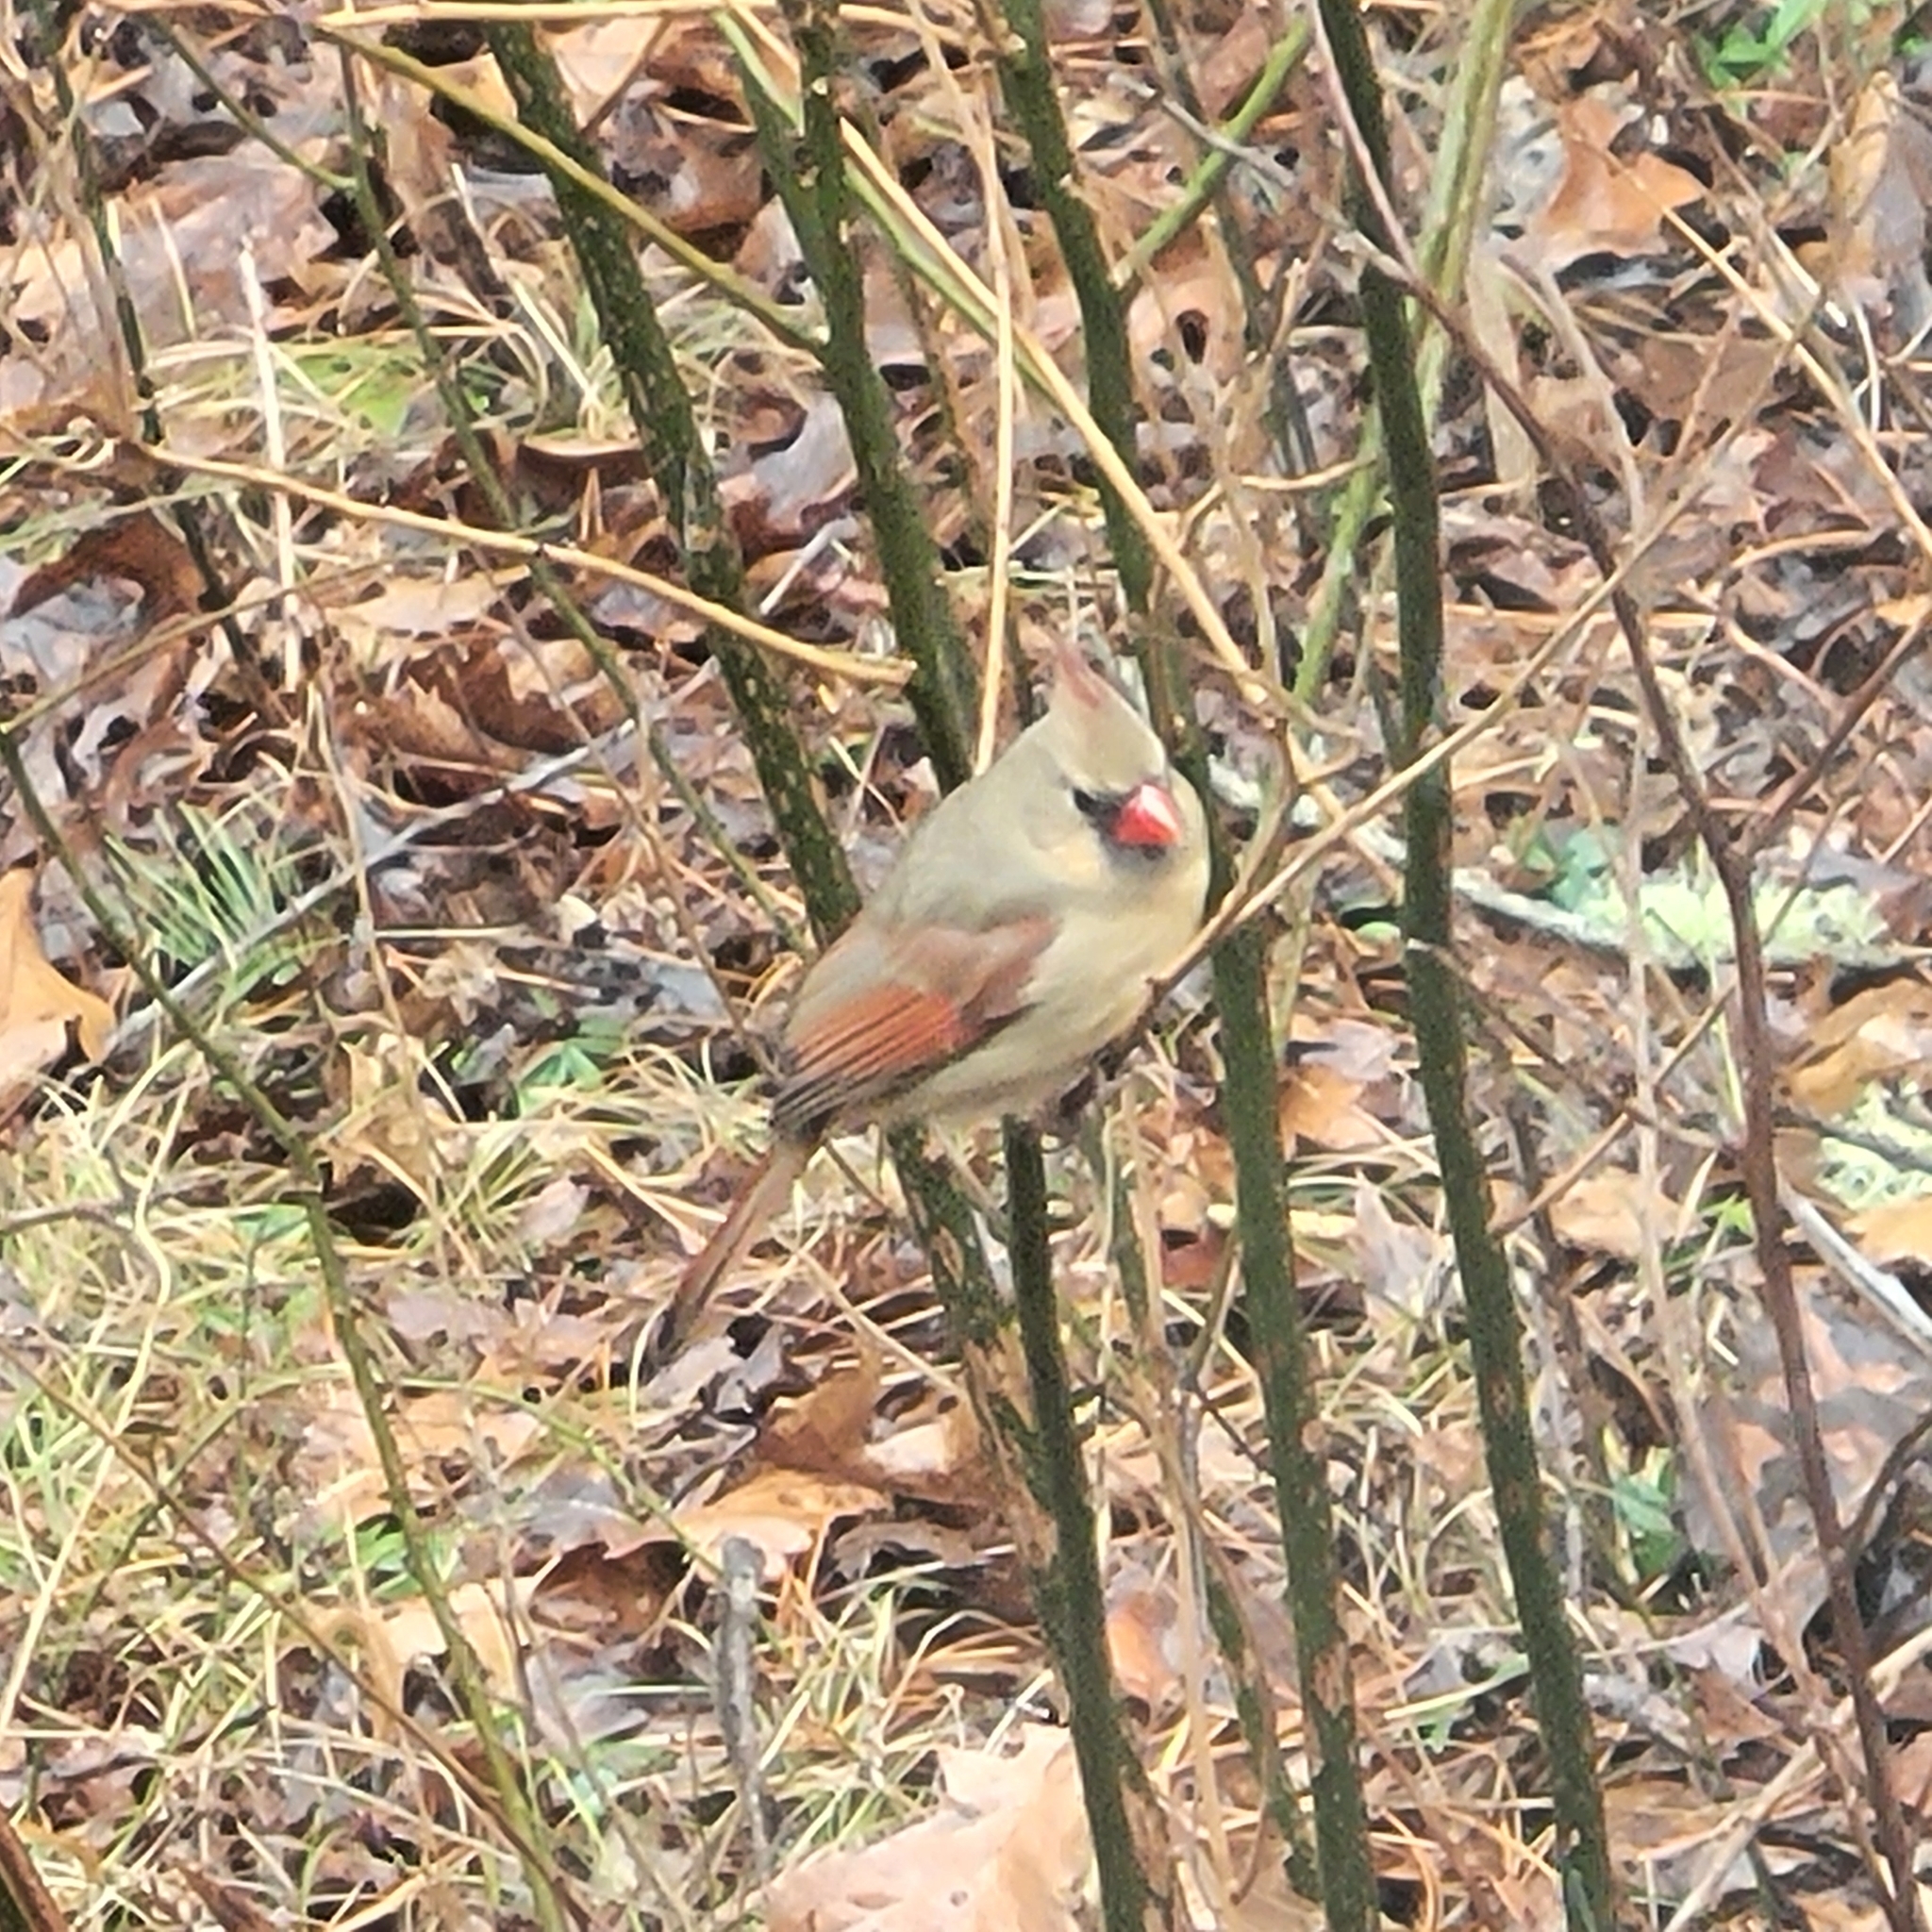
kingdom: Animalia
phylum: Chordata
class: Aves
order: Passeriformes
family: Cardinalidae
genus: Cardinalis
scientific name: Cardinalis cardinalis
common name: Northern cardinal
